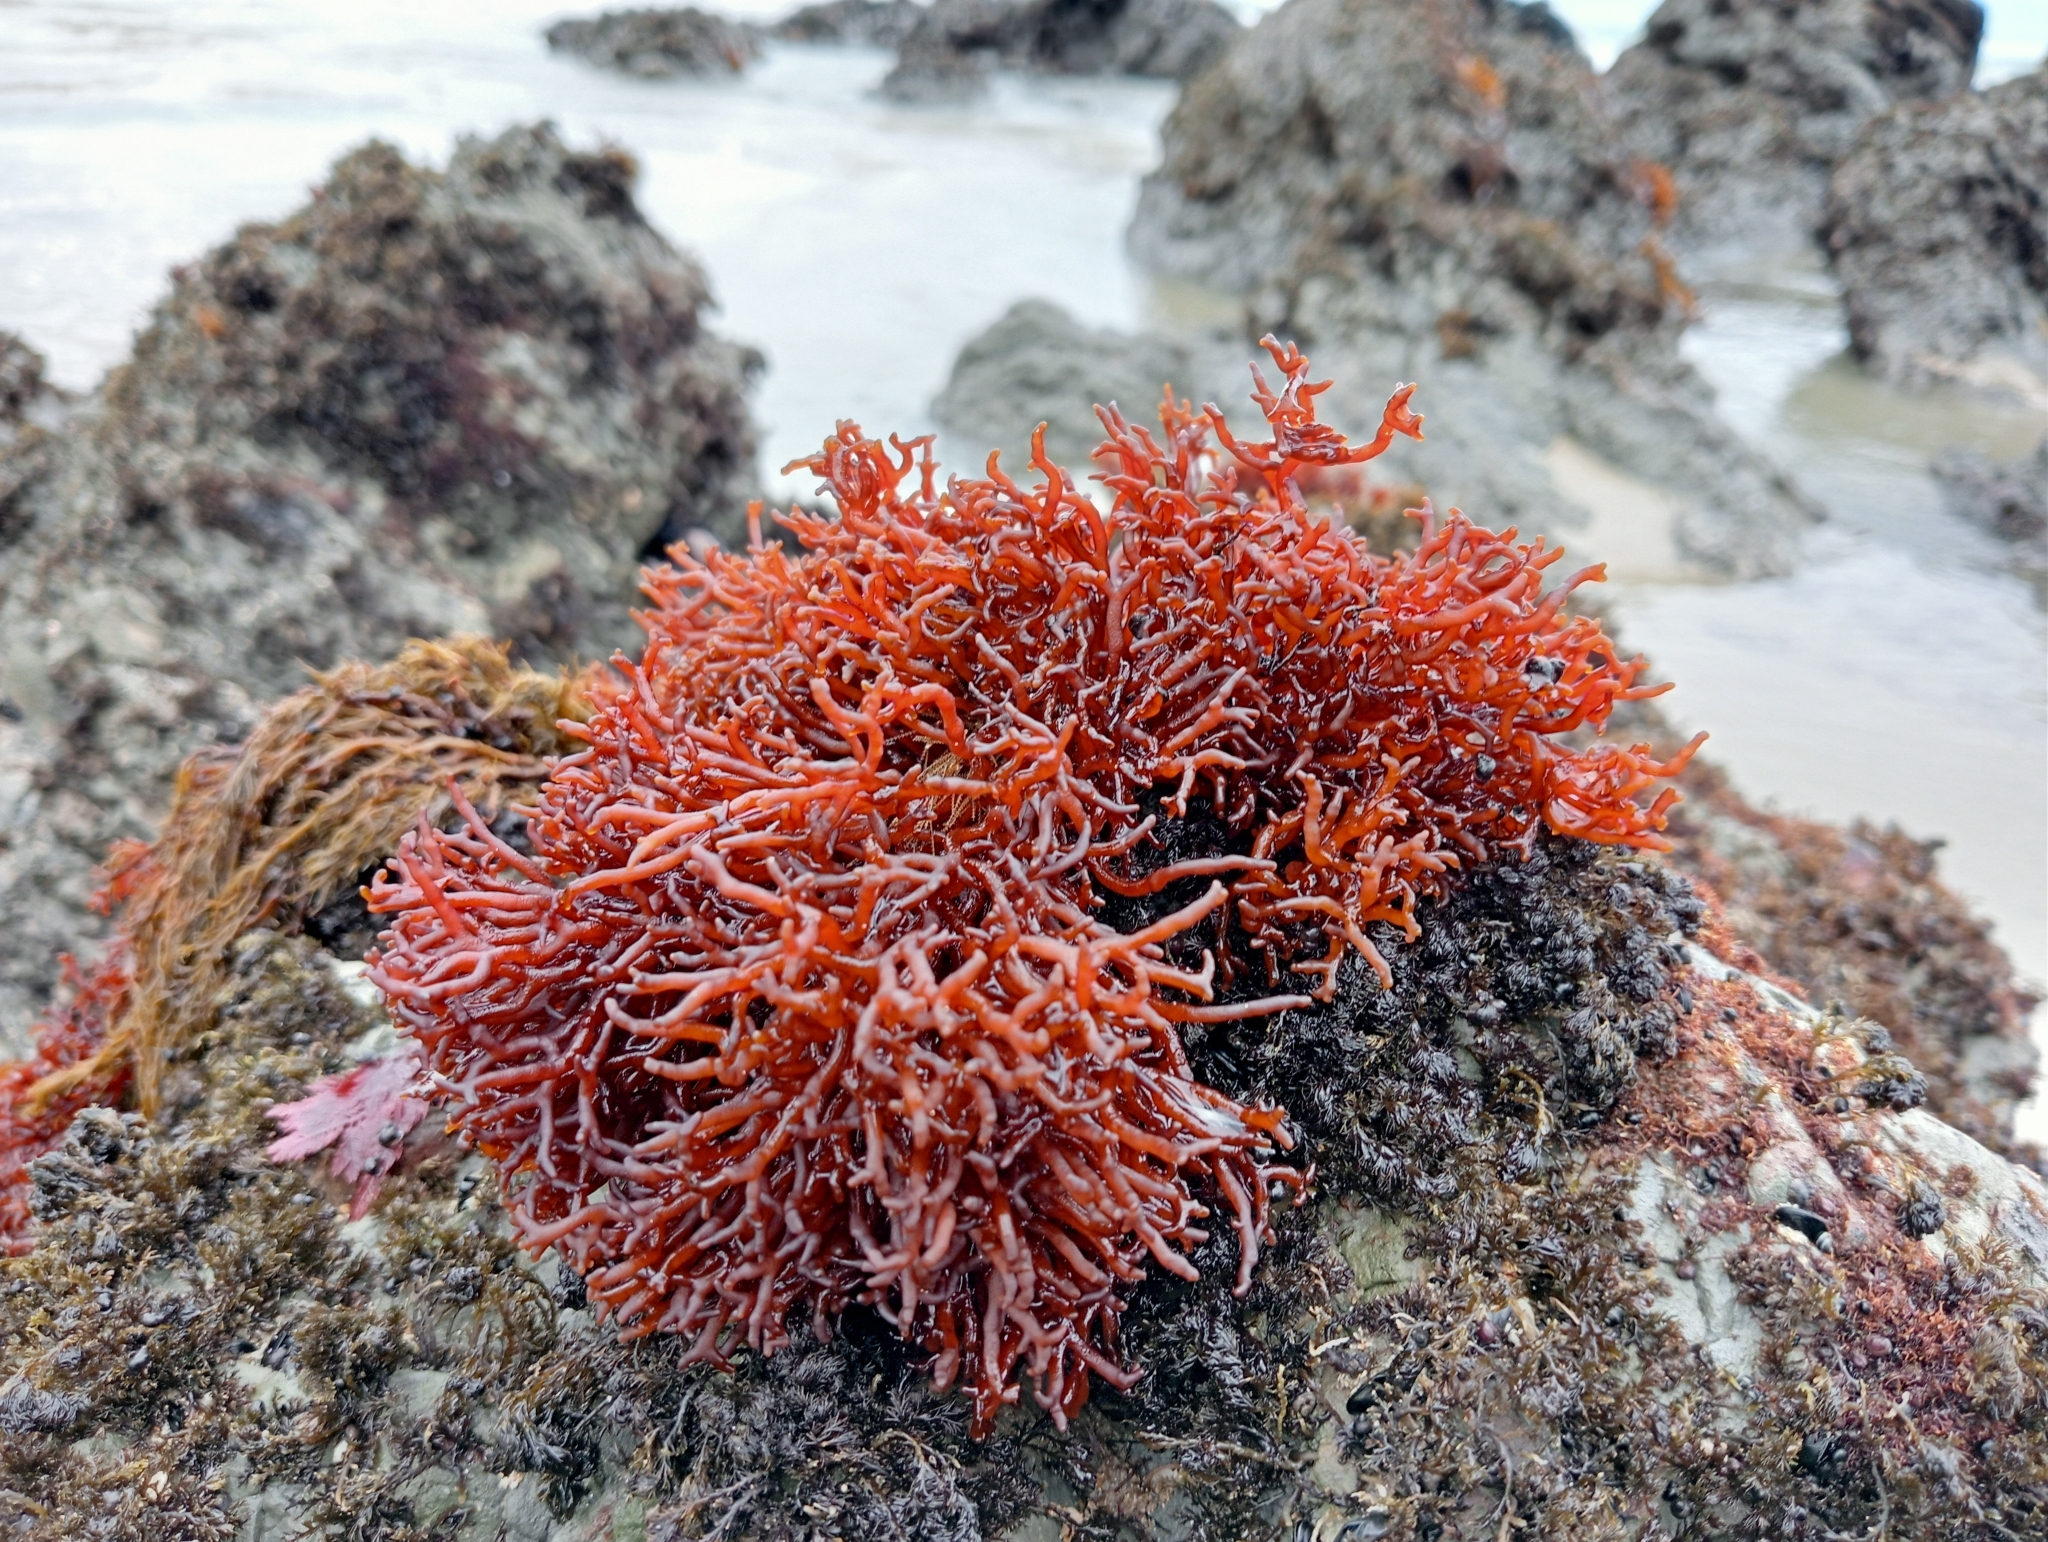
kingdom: Plantae
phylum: Rhodophyta
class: Florideophyceae
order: Hildenbrandiales
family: Hildenbrandiaceae
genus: Apophlaea
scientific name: Apophlaea lyallii
